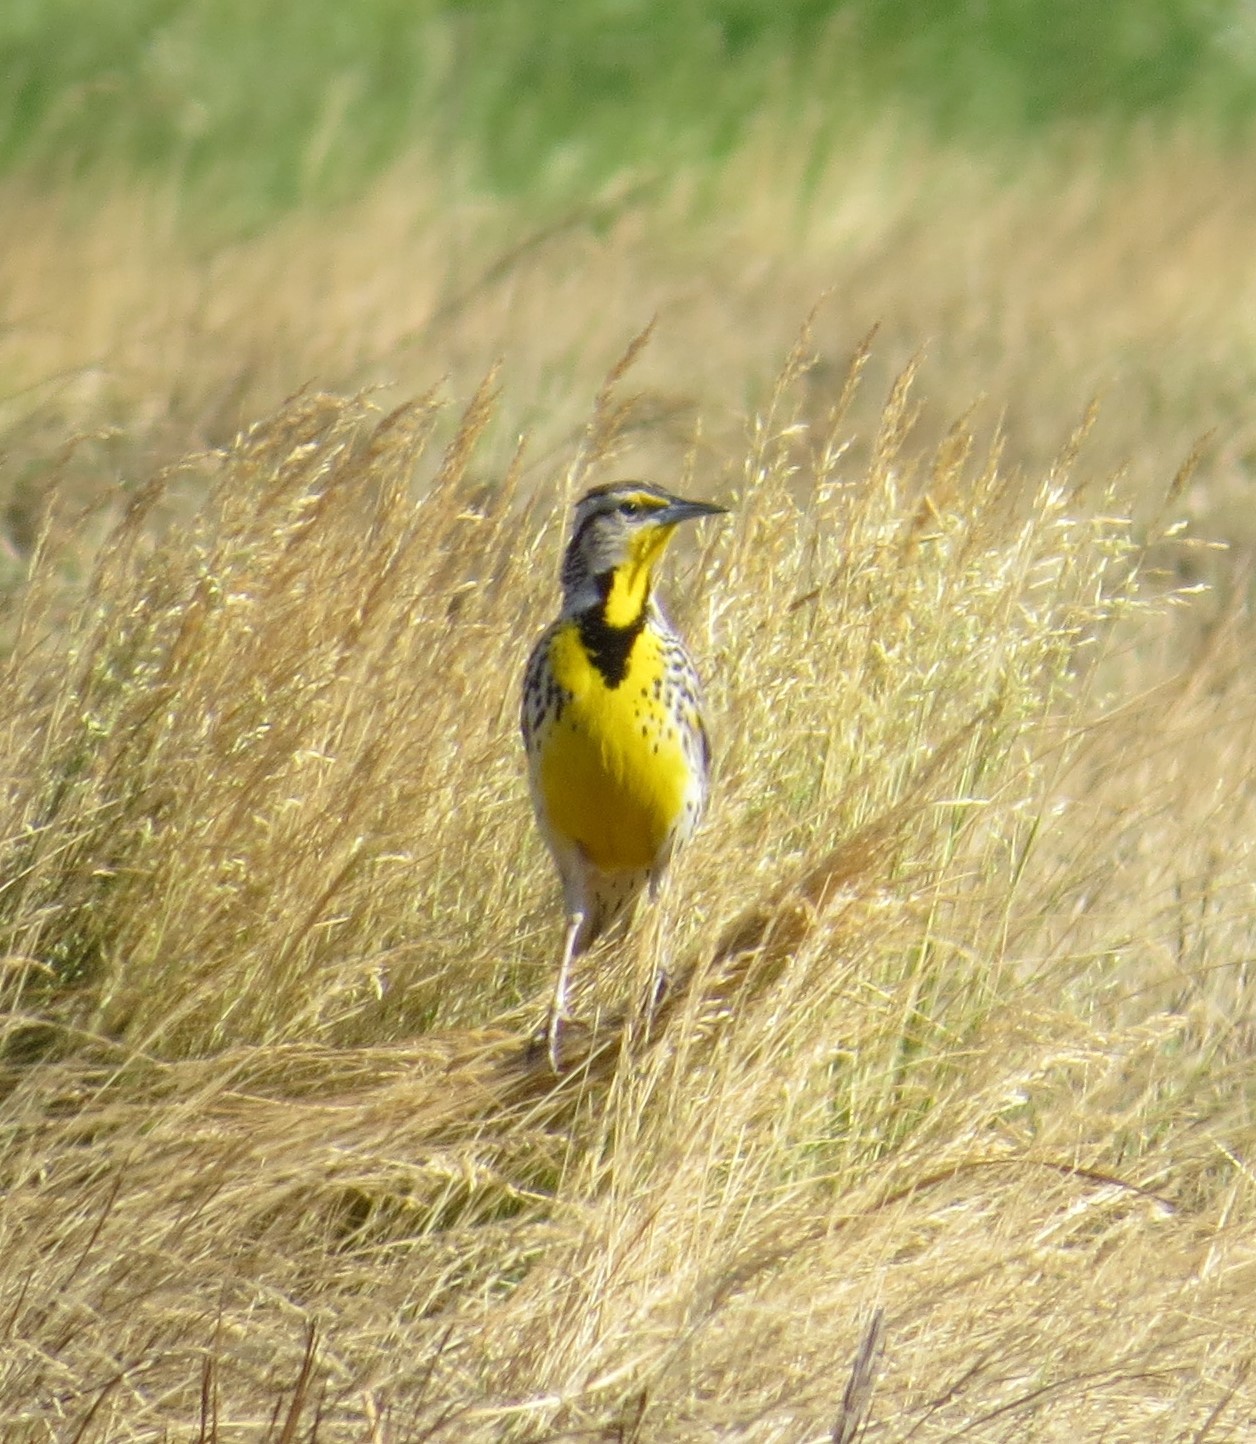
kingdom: Animalia
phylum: Chordata
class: Aves
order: Passeriformes
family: Icteridae
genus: Sturnella
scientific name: Sturnella neglecta
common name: Western meadowlark
